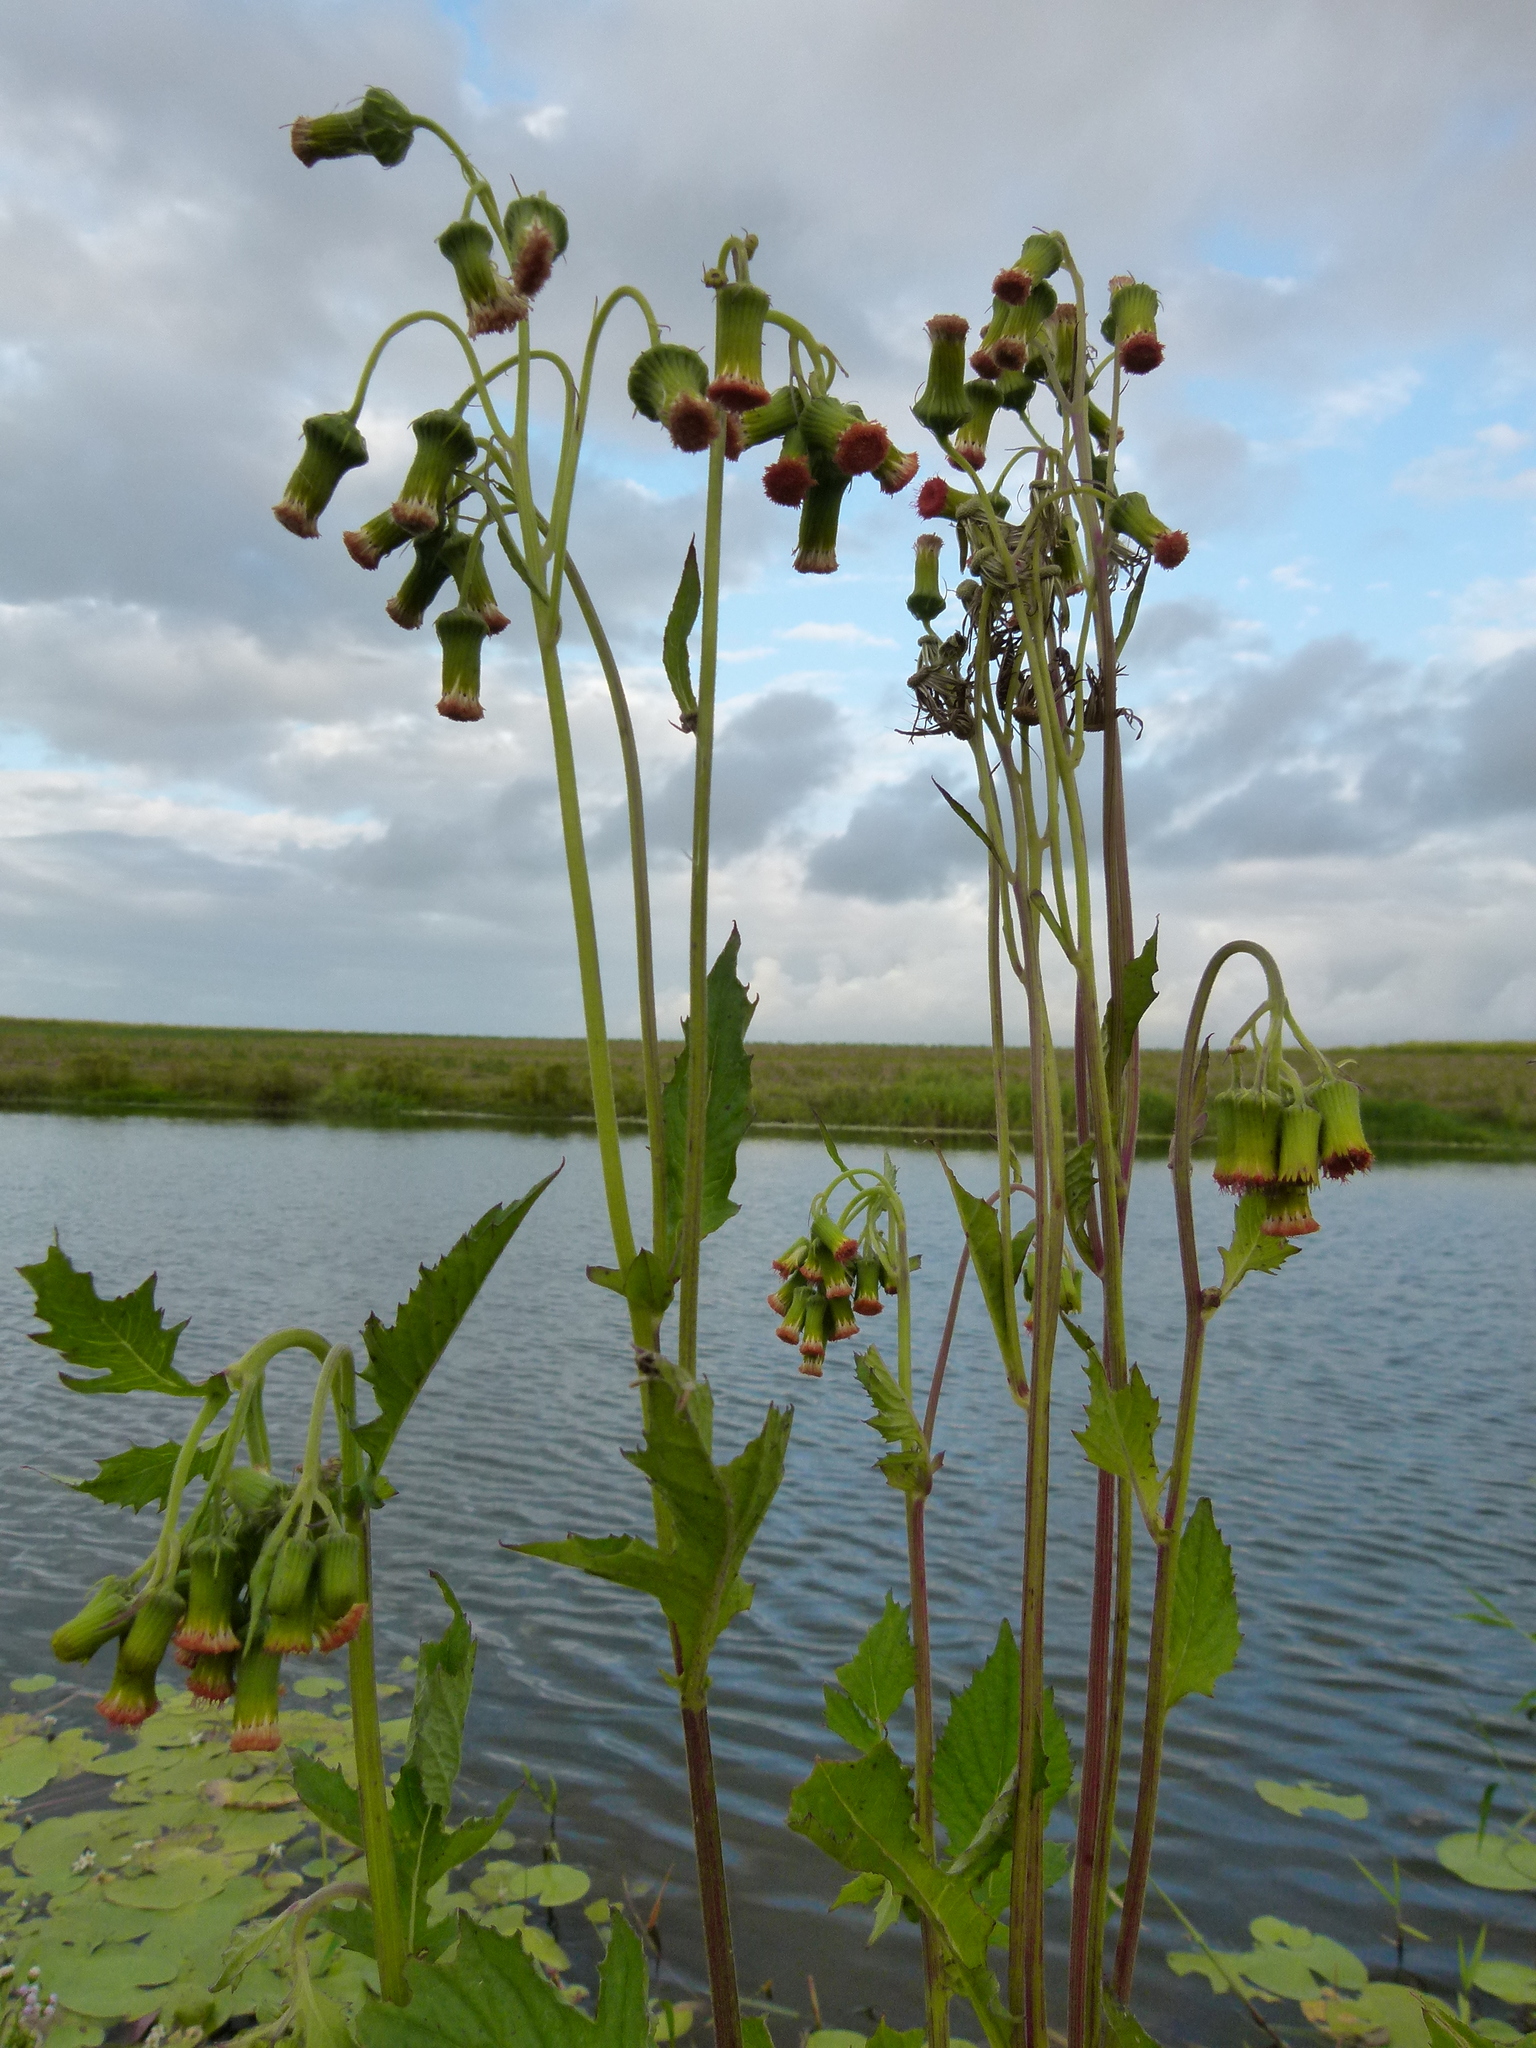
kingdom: Plantae
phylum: Tracheophyta
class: Magnoliopsida
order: Asterales
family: Asteraceae
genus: Crassocephalum
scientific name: Crassocephalum crepidioides
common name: Redflower ragleaf
